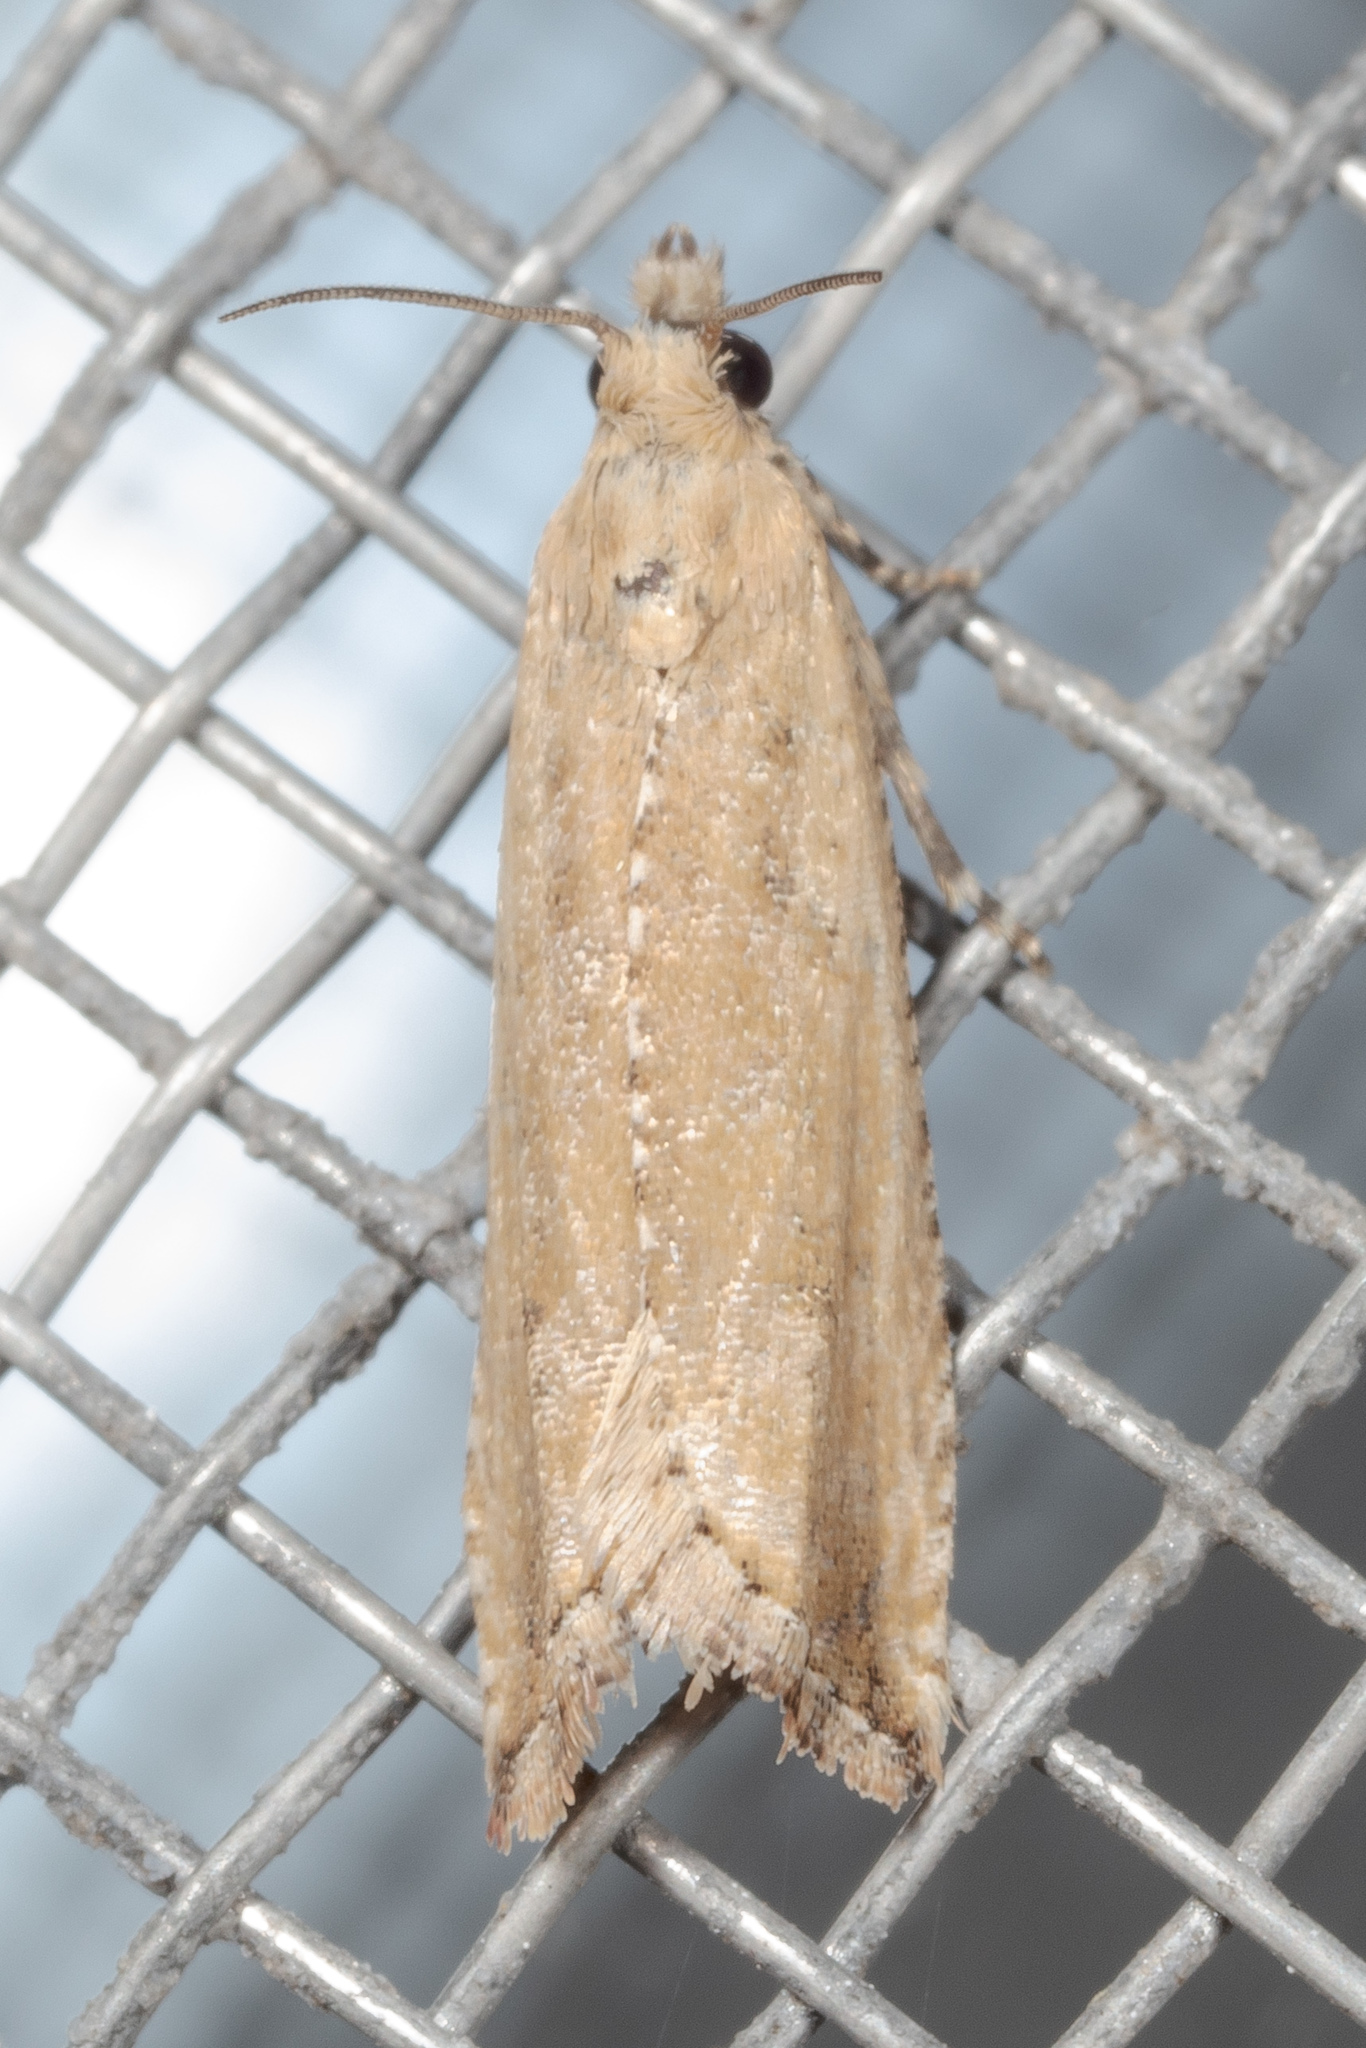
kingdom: Animalia
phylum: Arthropoda
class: Insecta
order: Lepidoptera
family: Tortricidae
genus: Bactra
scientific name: Bactra verutana
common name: Javelin moth
